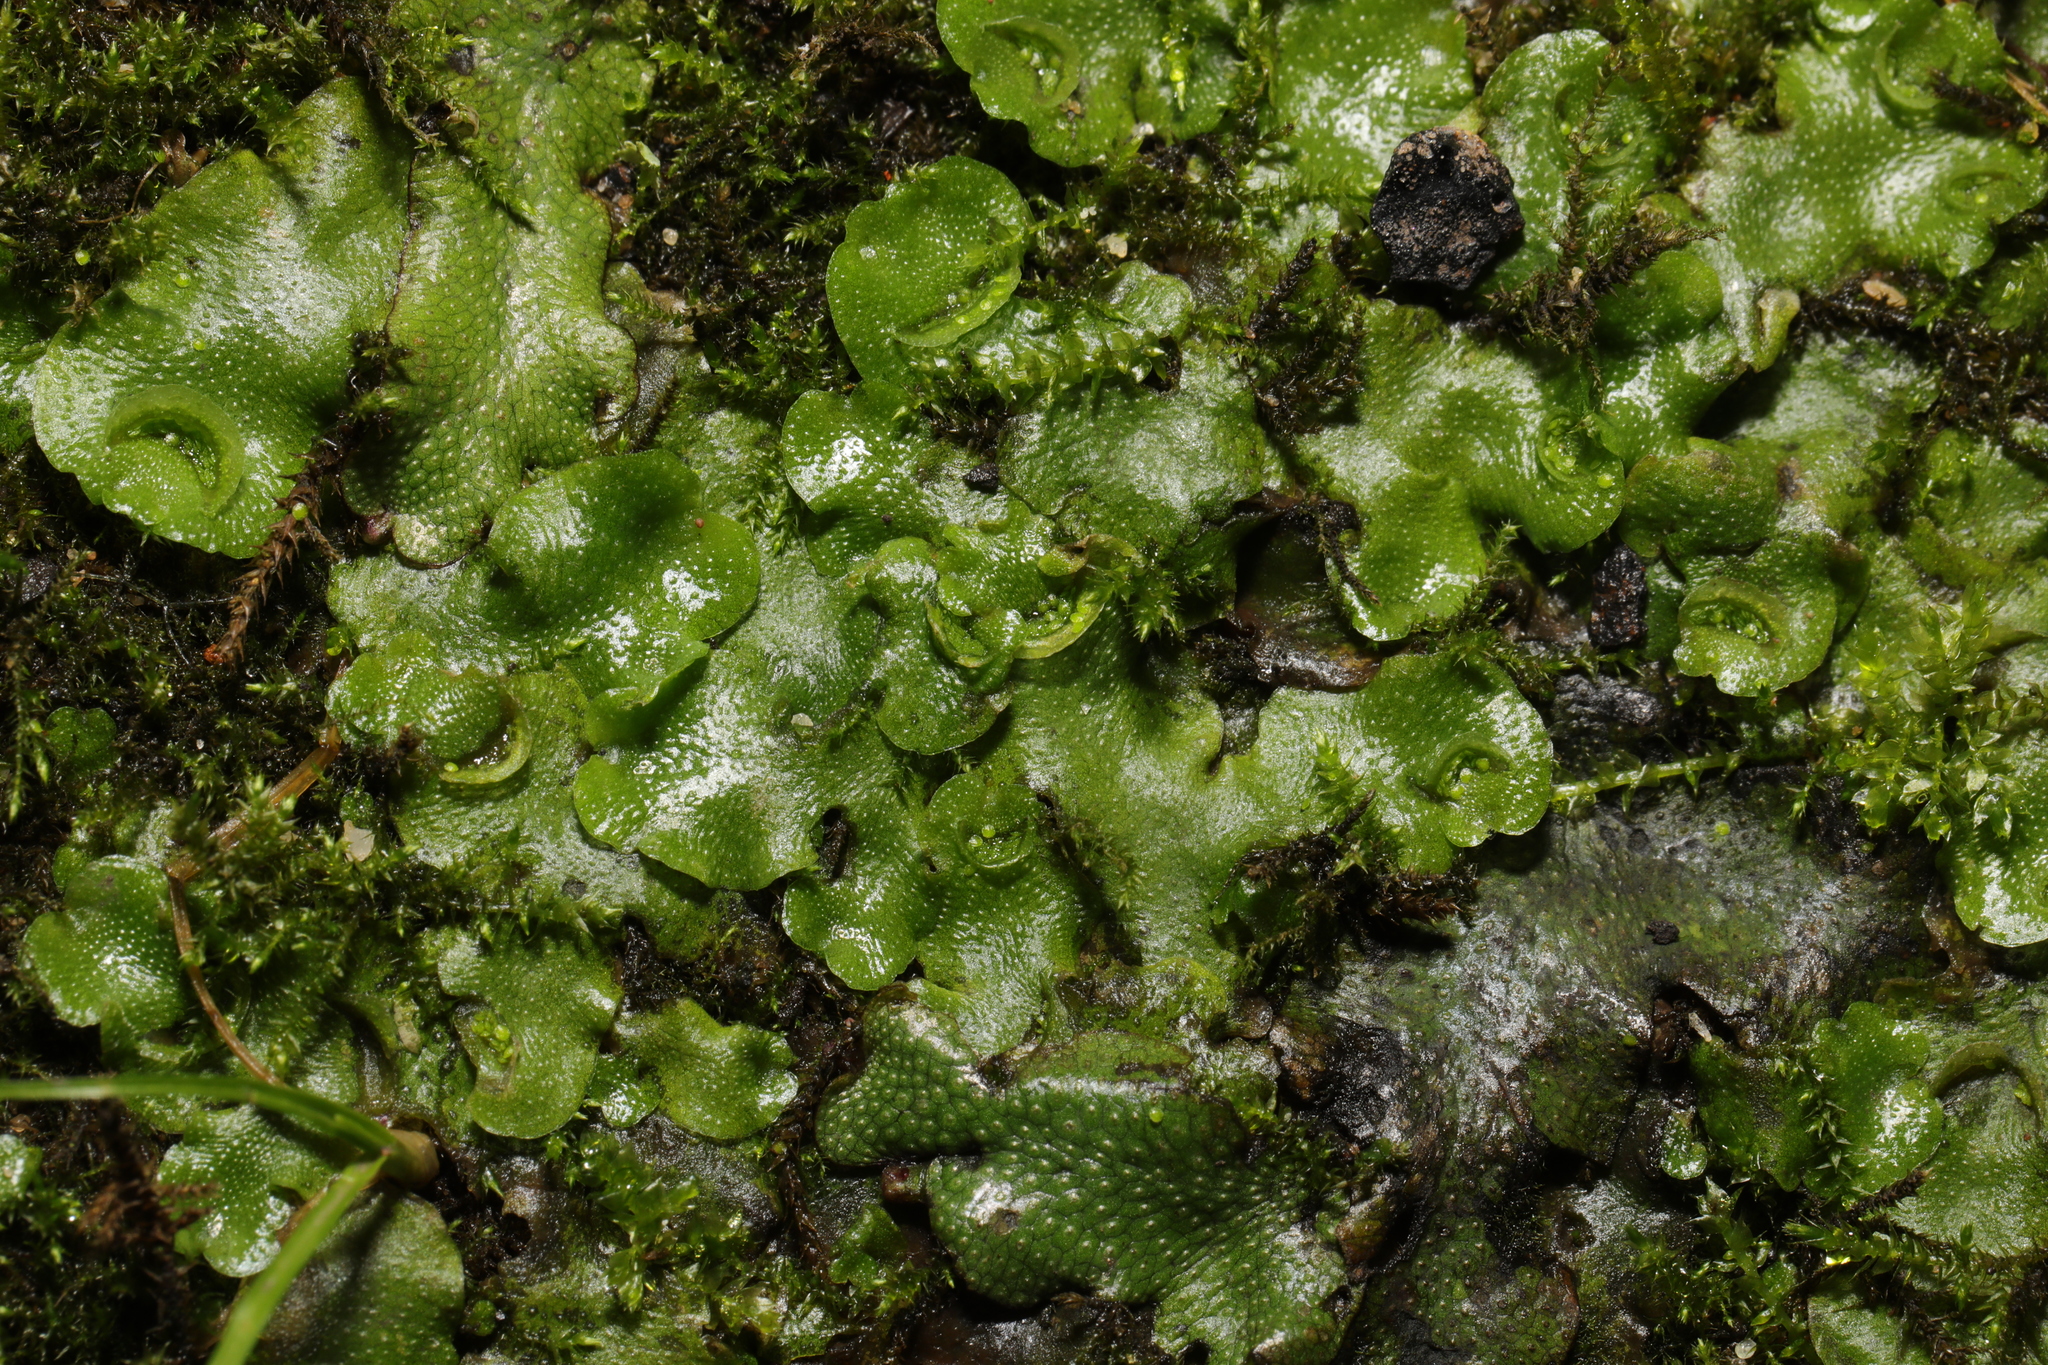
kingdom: Plantae
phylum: Marchantiophyta
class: Marchantiopsida
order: Lunulariales
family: Lunulariaceae
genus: Lunularia
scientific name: Lunularia cruciata
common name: Crescent-cup liverwort
